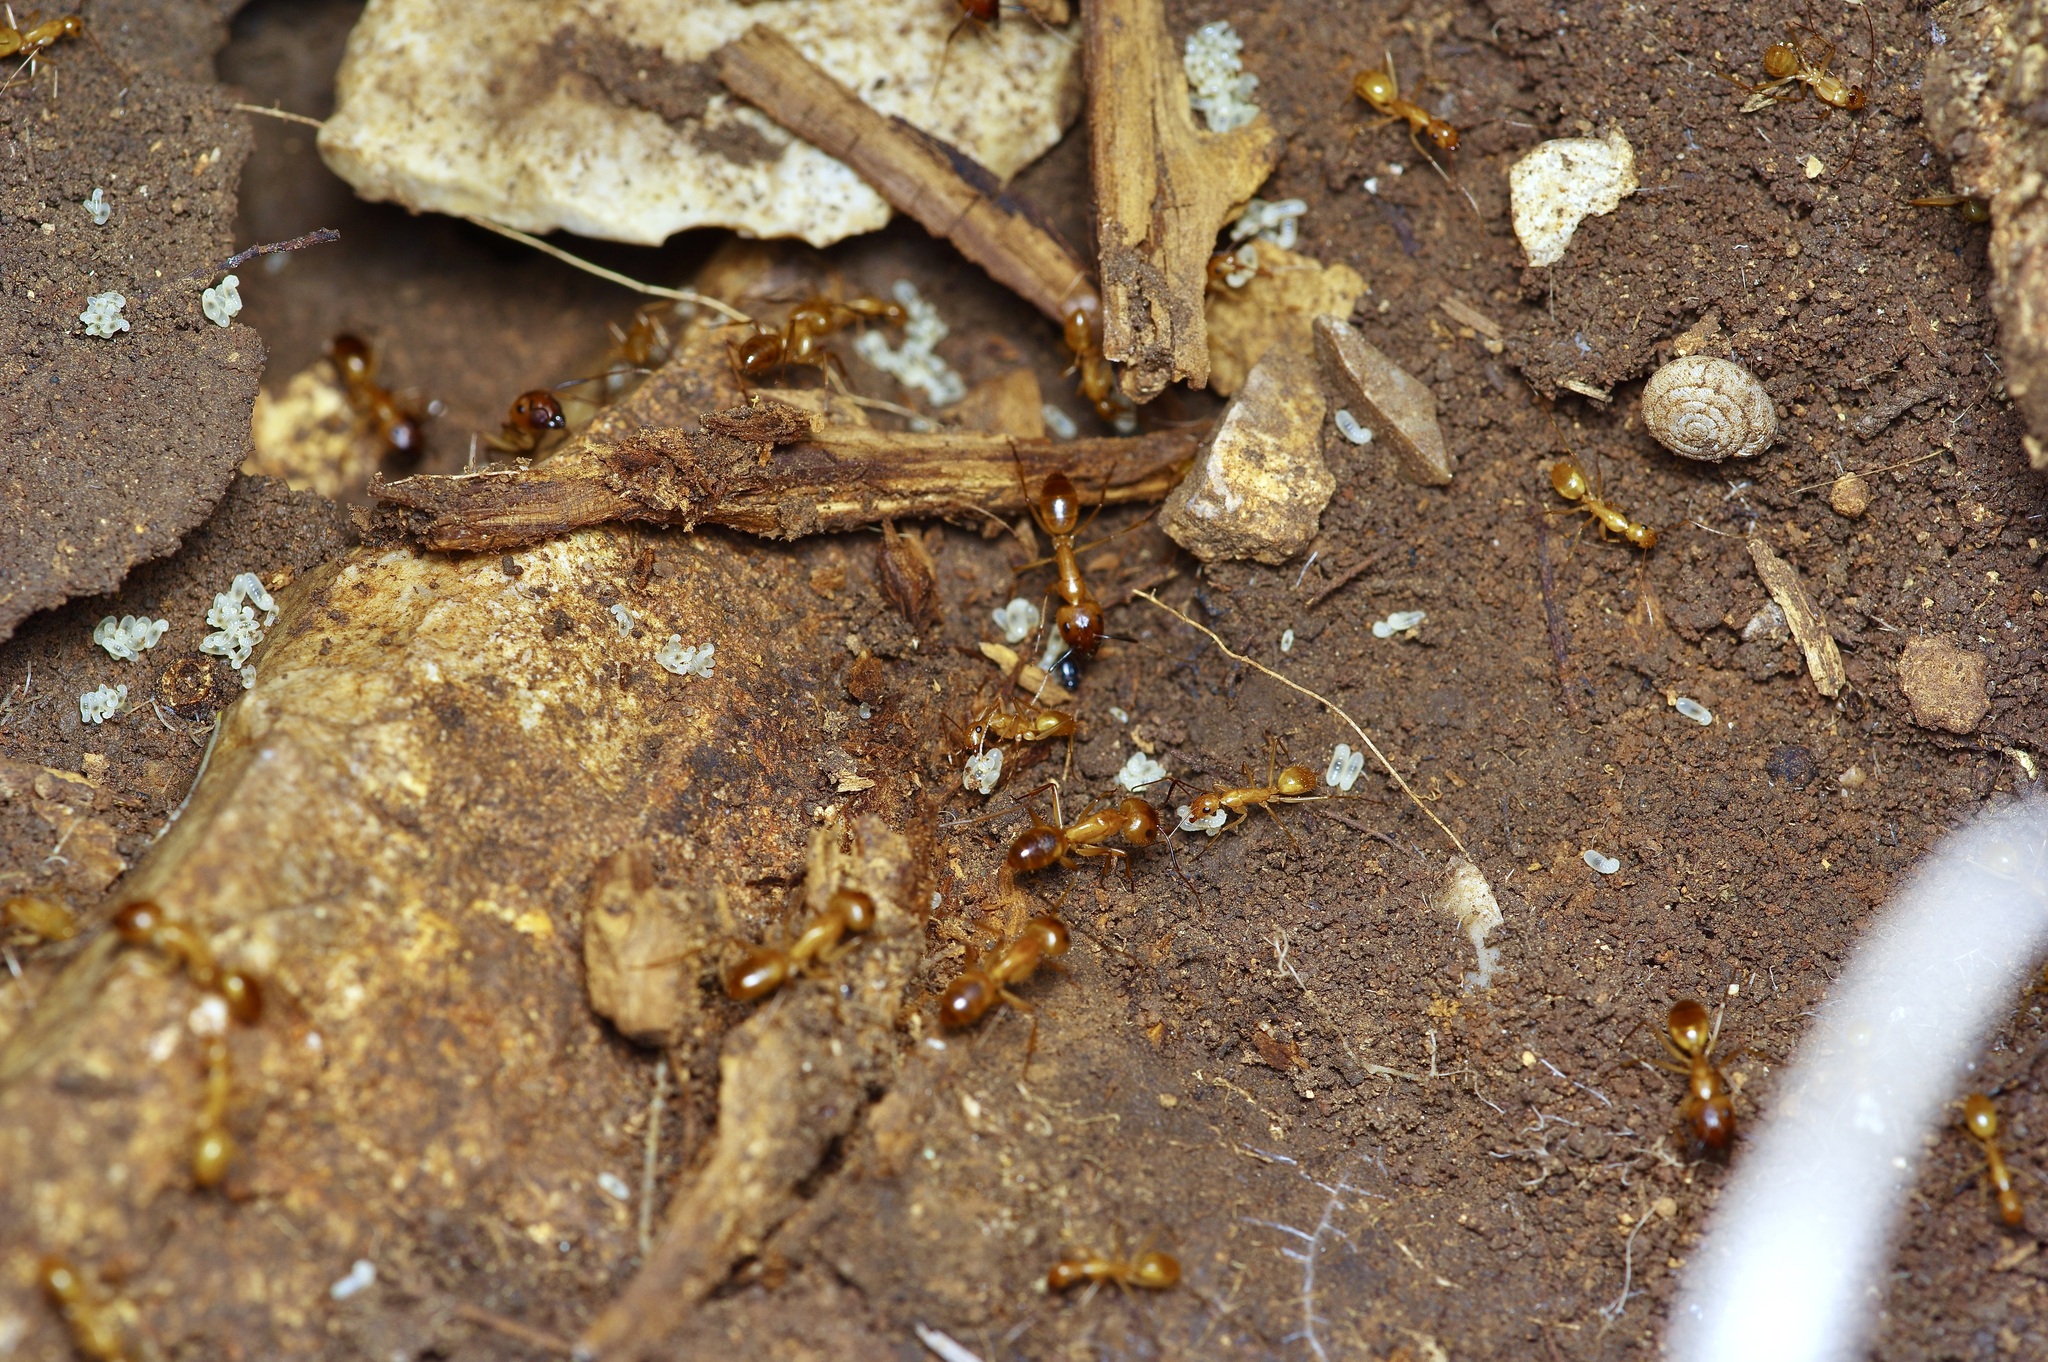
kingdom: Animalia
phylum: Arthropoda
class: Insecta
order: Hymenoptera
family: Formicidae
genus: Camponotus
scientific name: Camponotus festinatus
